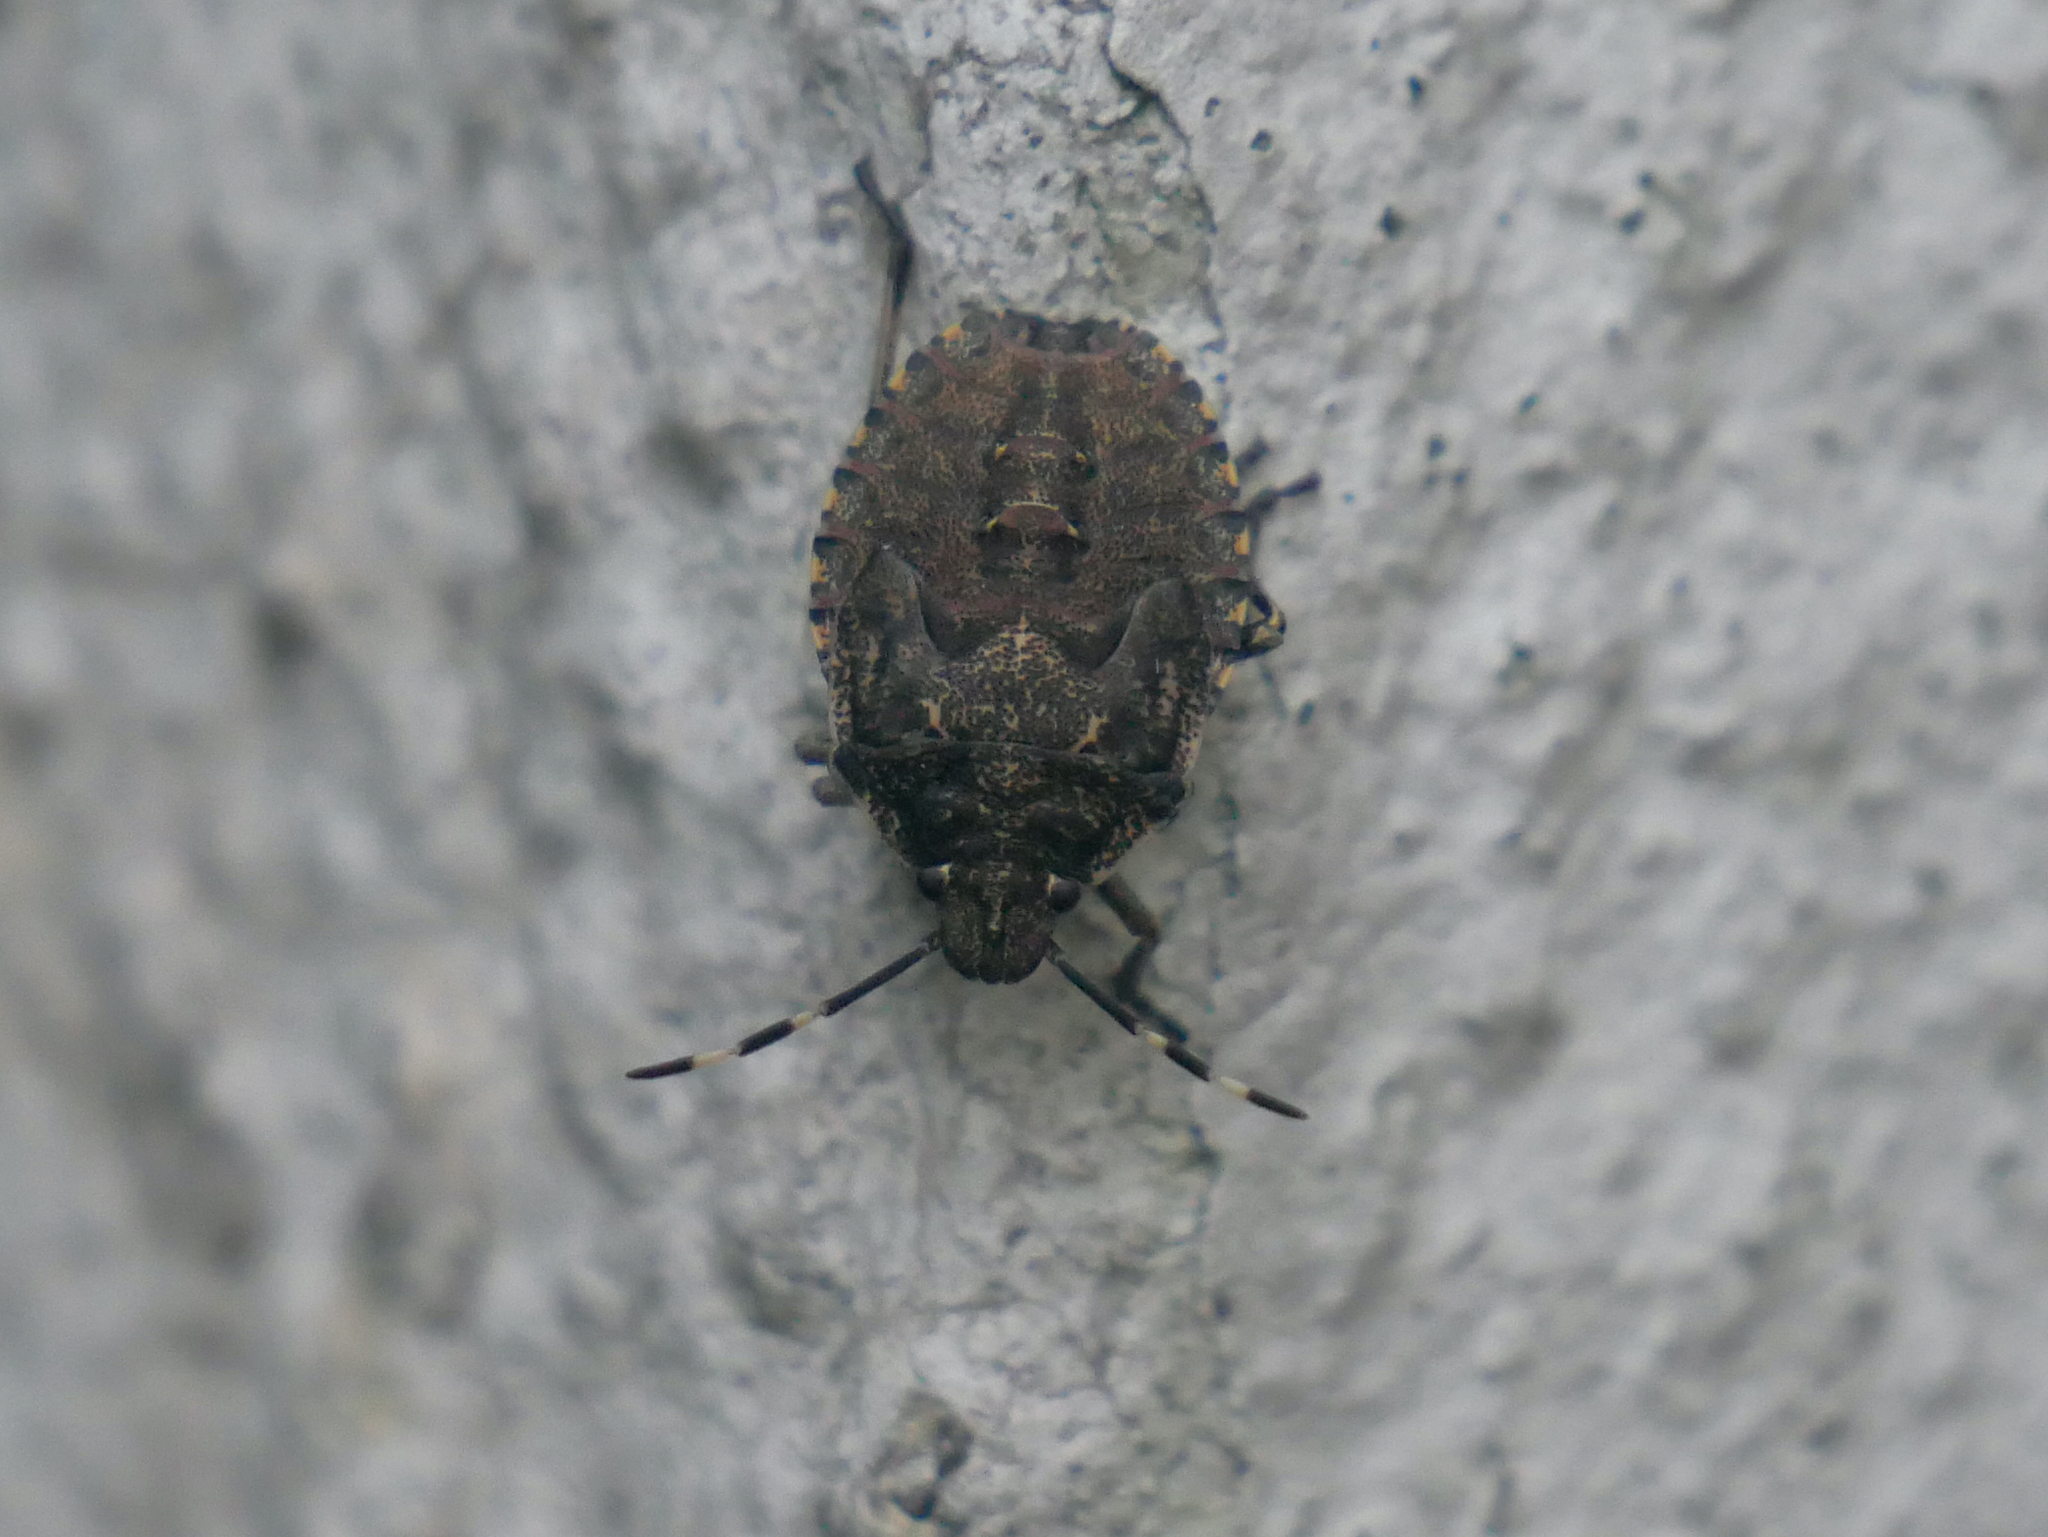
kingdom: Animalia
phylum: Arthropoda
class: Insecta
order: Hemiptera
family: Pentatomidae
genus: Rhaphigaster
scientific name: Rhaphigaster nebulosa
